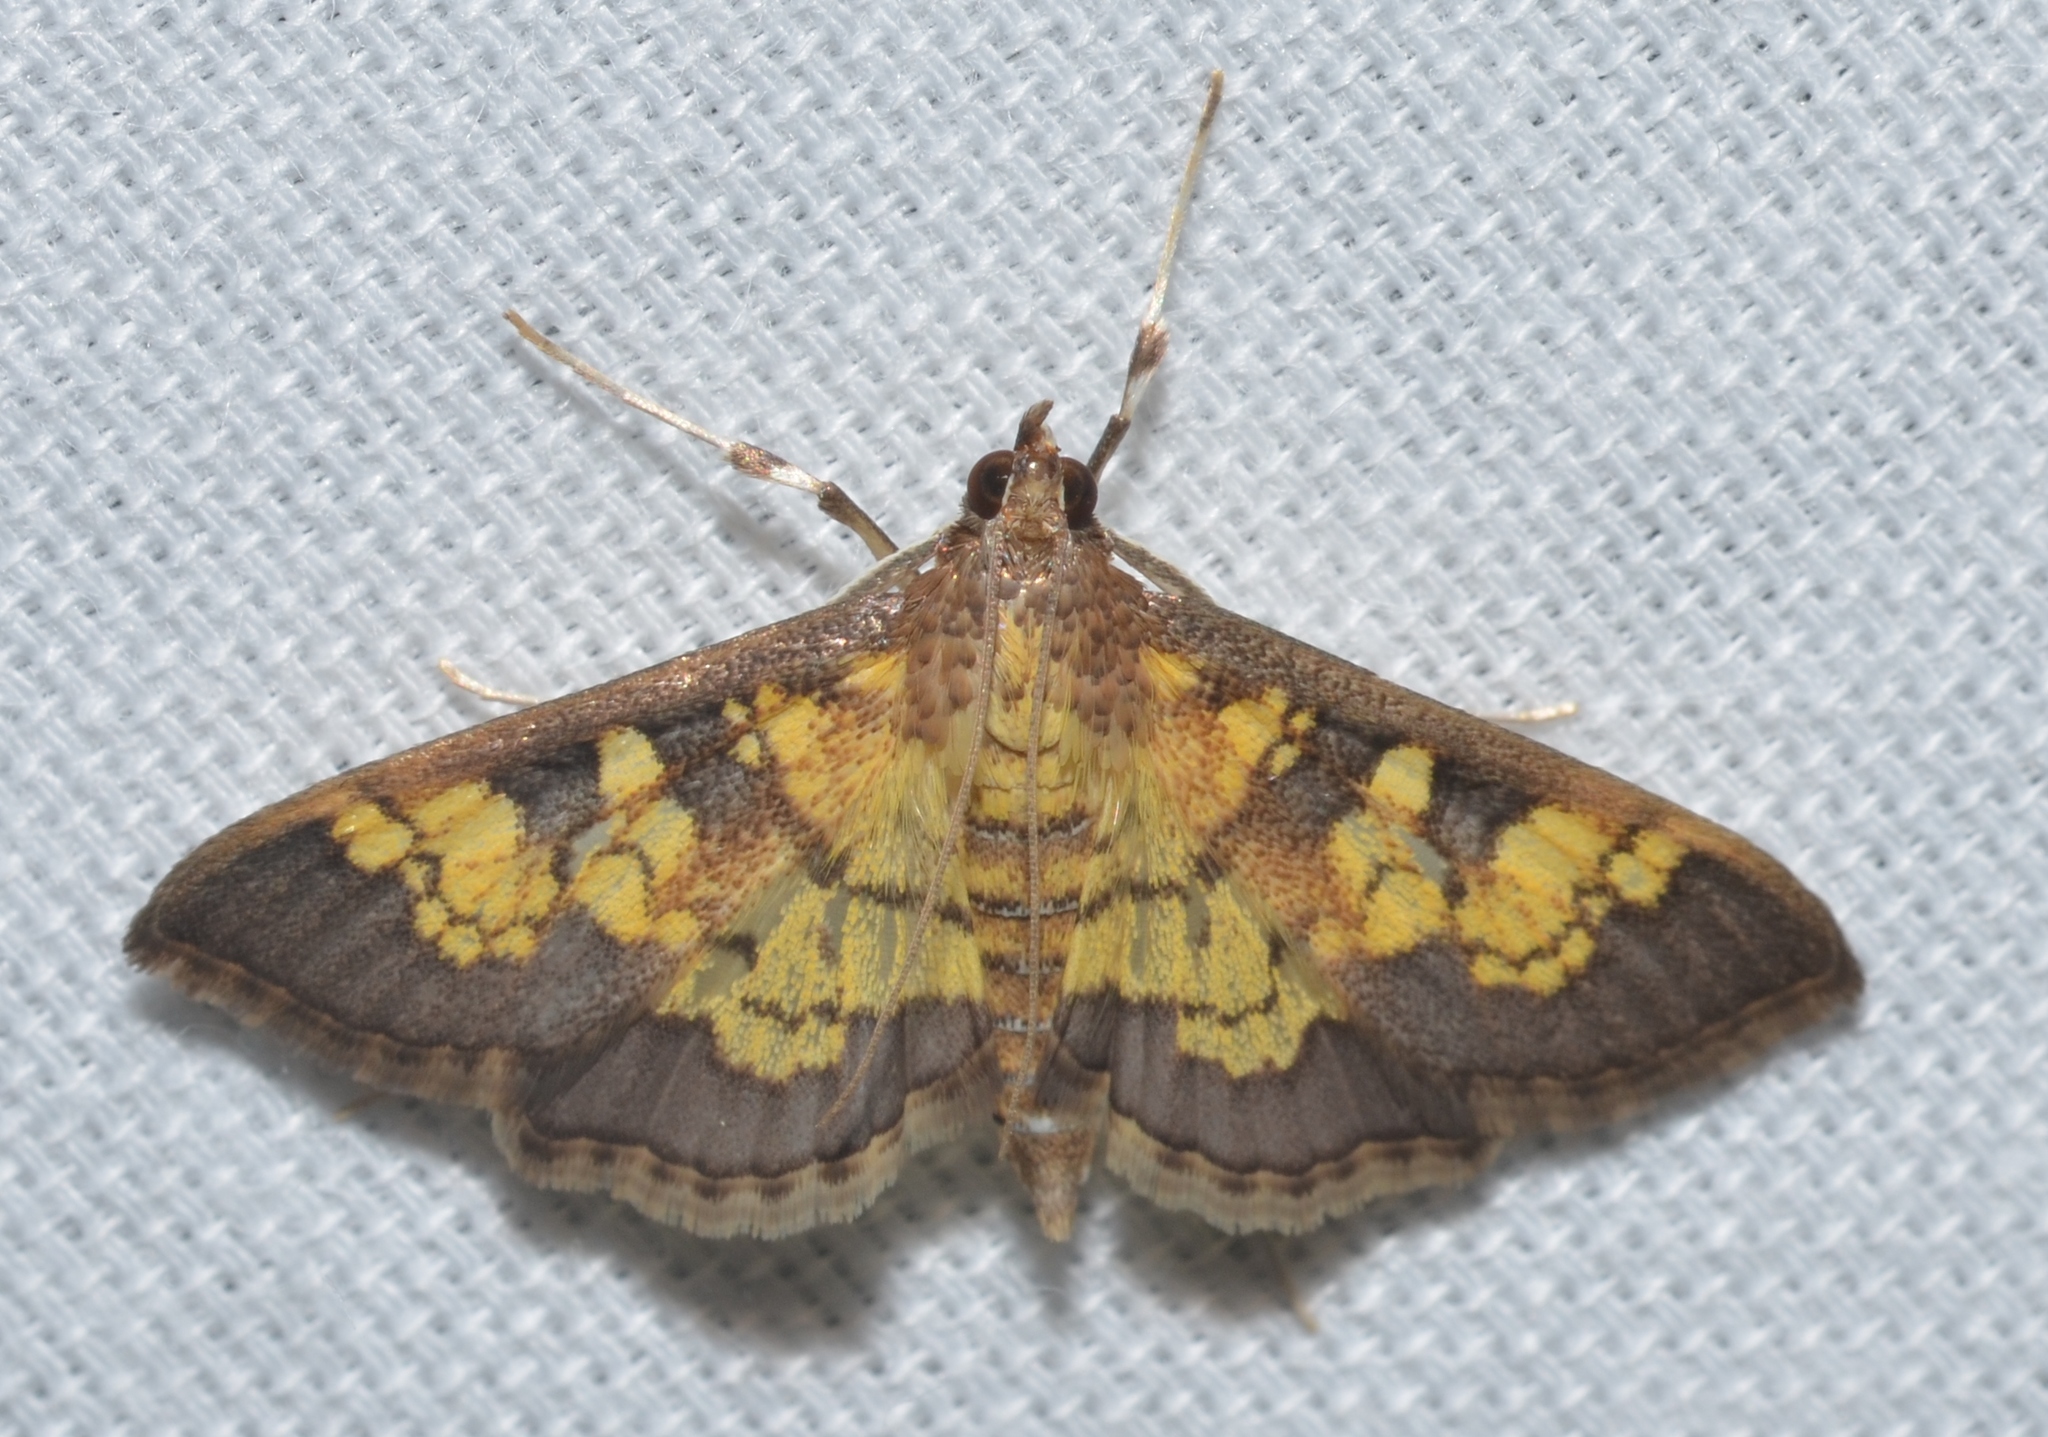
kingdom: Animalia
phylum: Arthropoda
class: Insecta
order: Lepidoptera
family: Crambidae
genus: Epipagis
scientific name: Epipagis adipaloides
